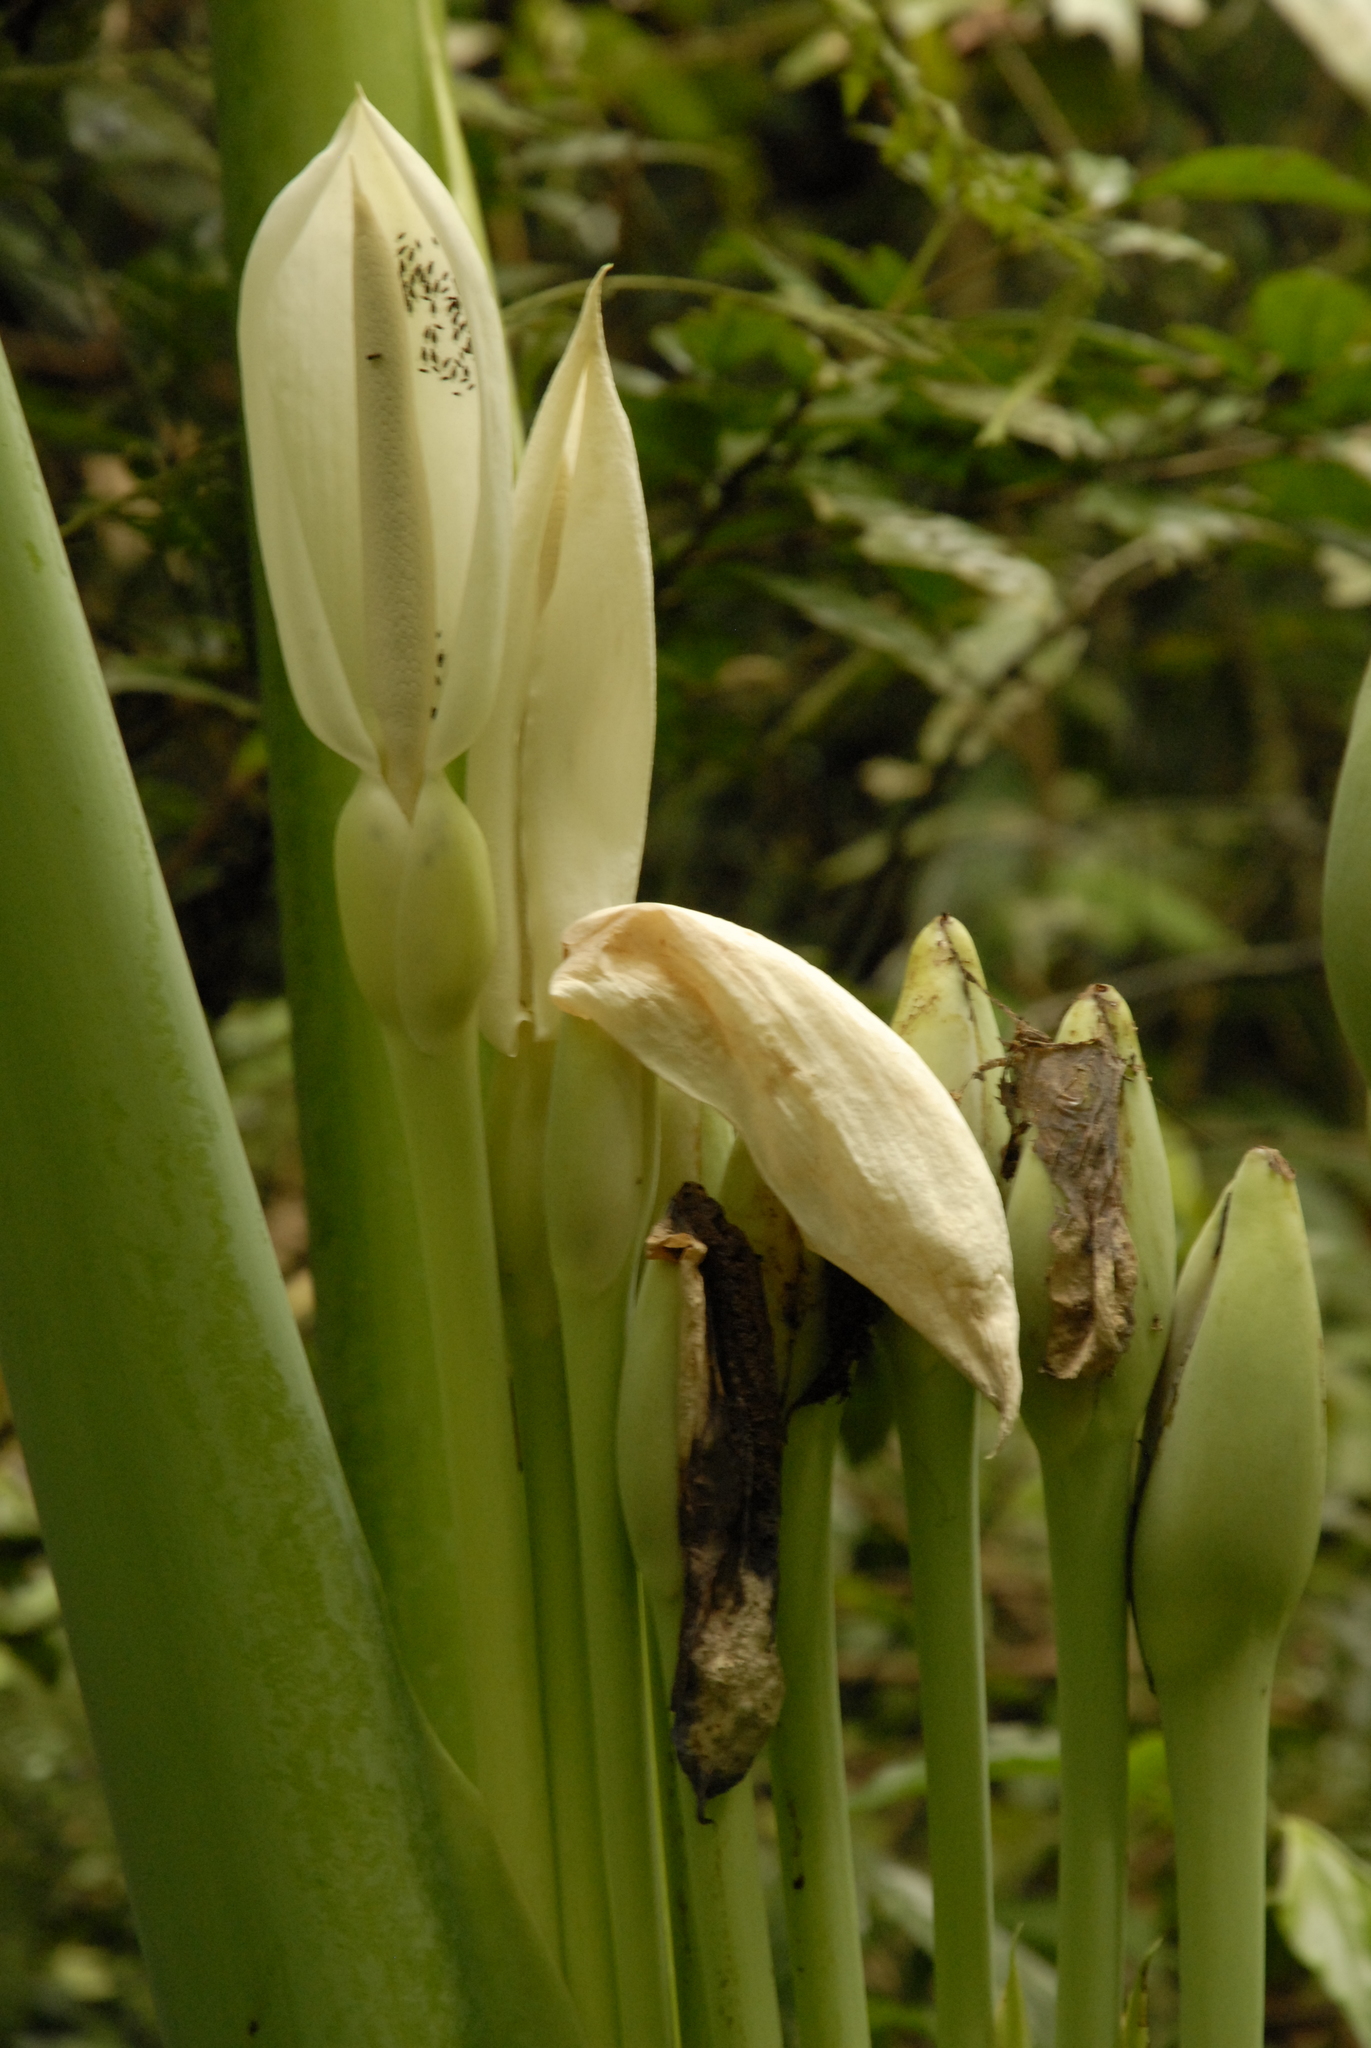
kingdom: Plantae
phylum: Tracheophyta
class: Liliopsida
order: Alismatales
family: Araceae
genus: Leucocasia
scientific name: Leucocasia gigantea
